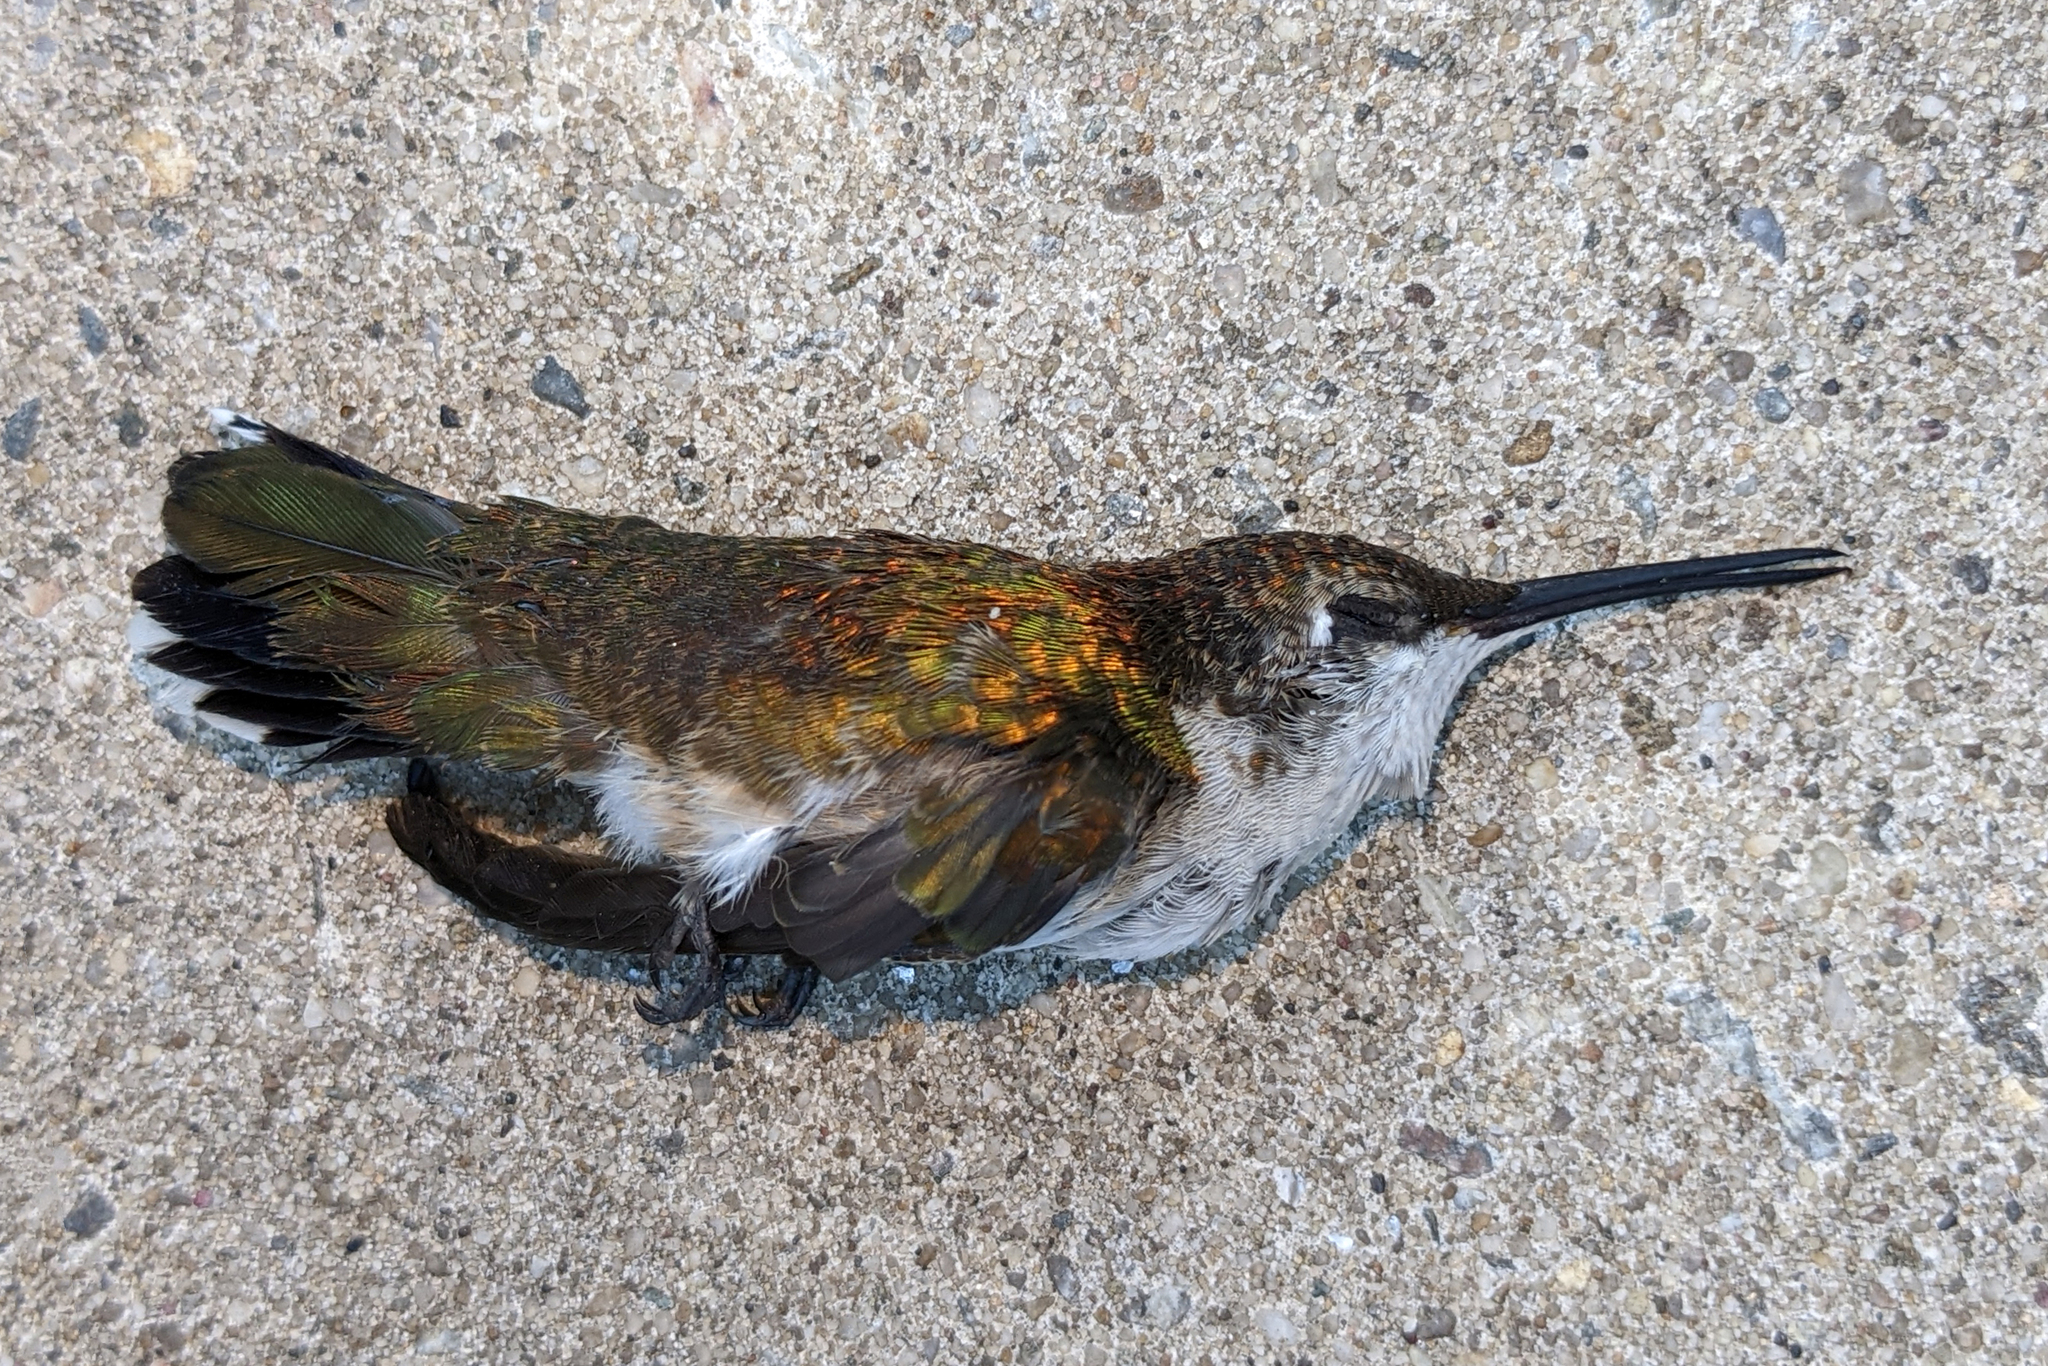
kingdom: Animalia
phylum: Chordata
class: Aves
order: Apodiformes
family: Trochilidae
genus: Archilochus
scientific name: Archilochus colubris
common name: Ruby-throated hummingbird
